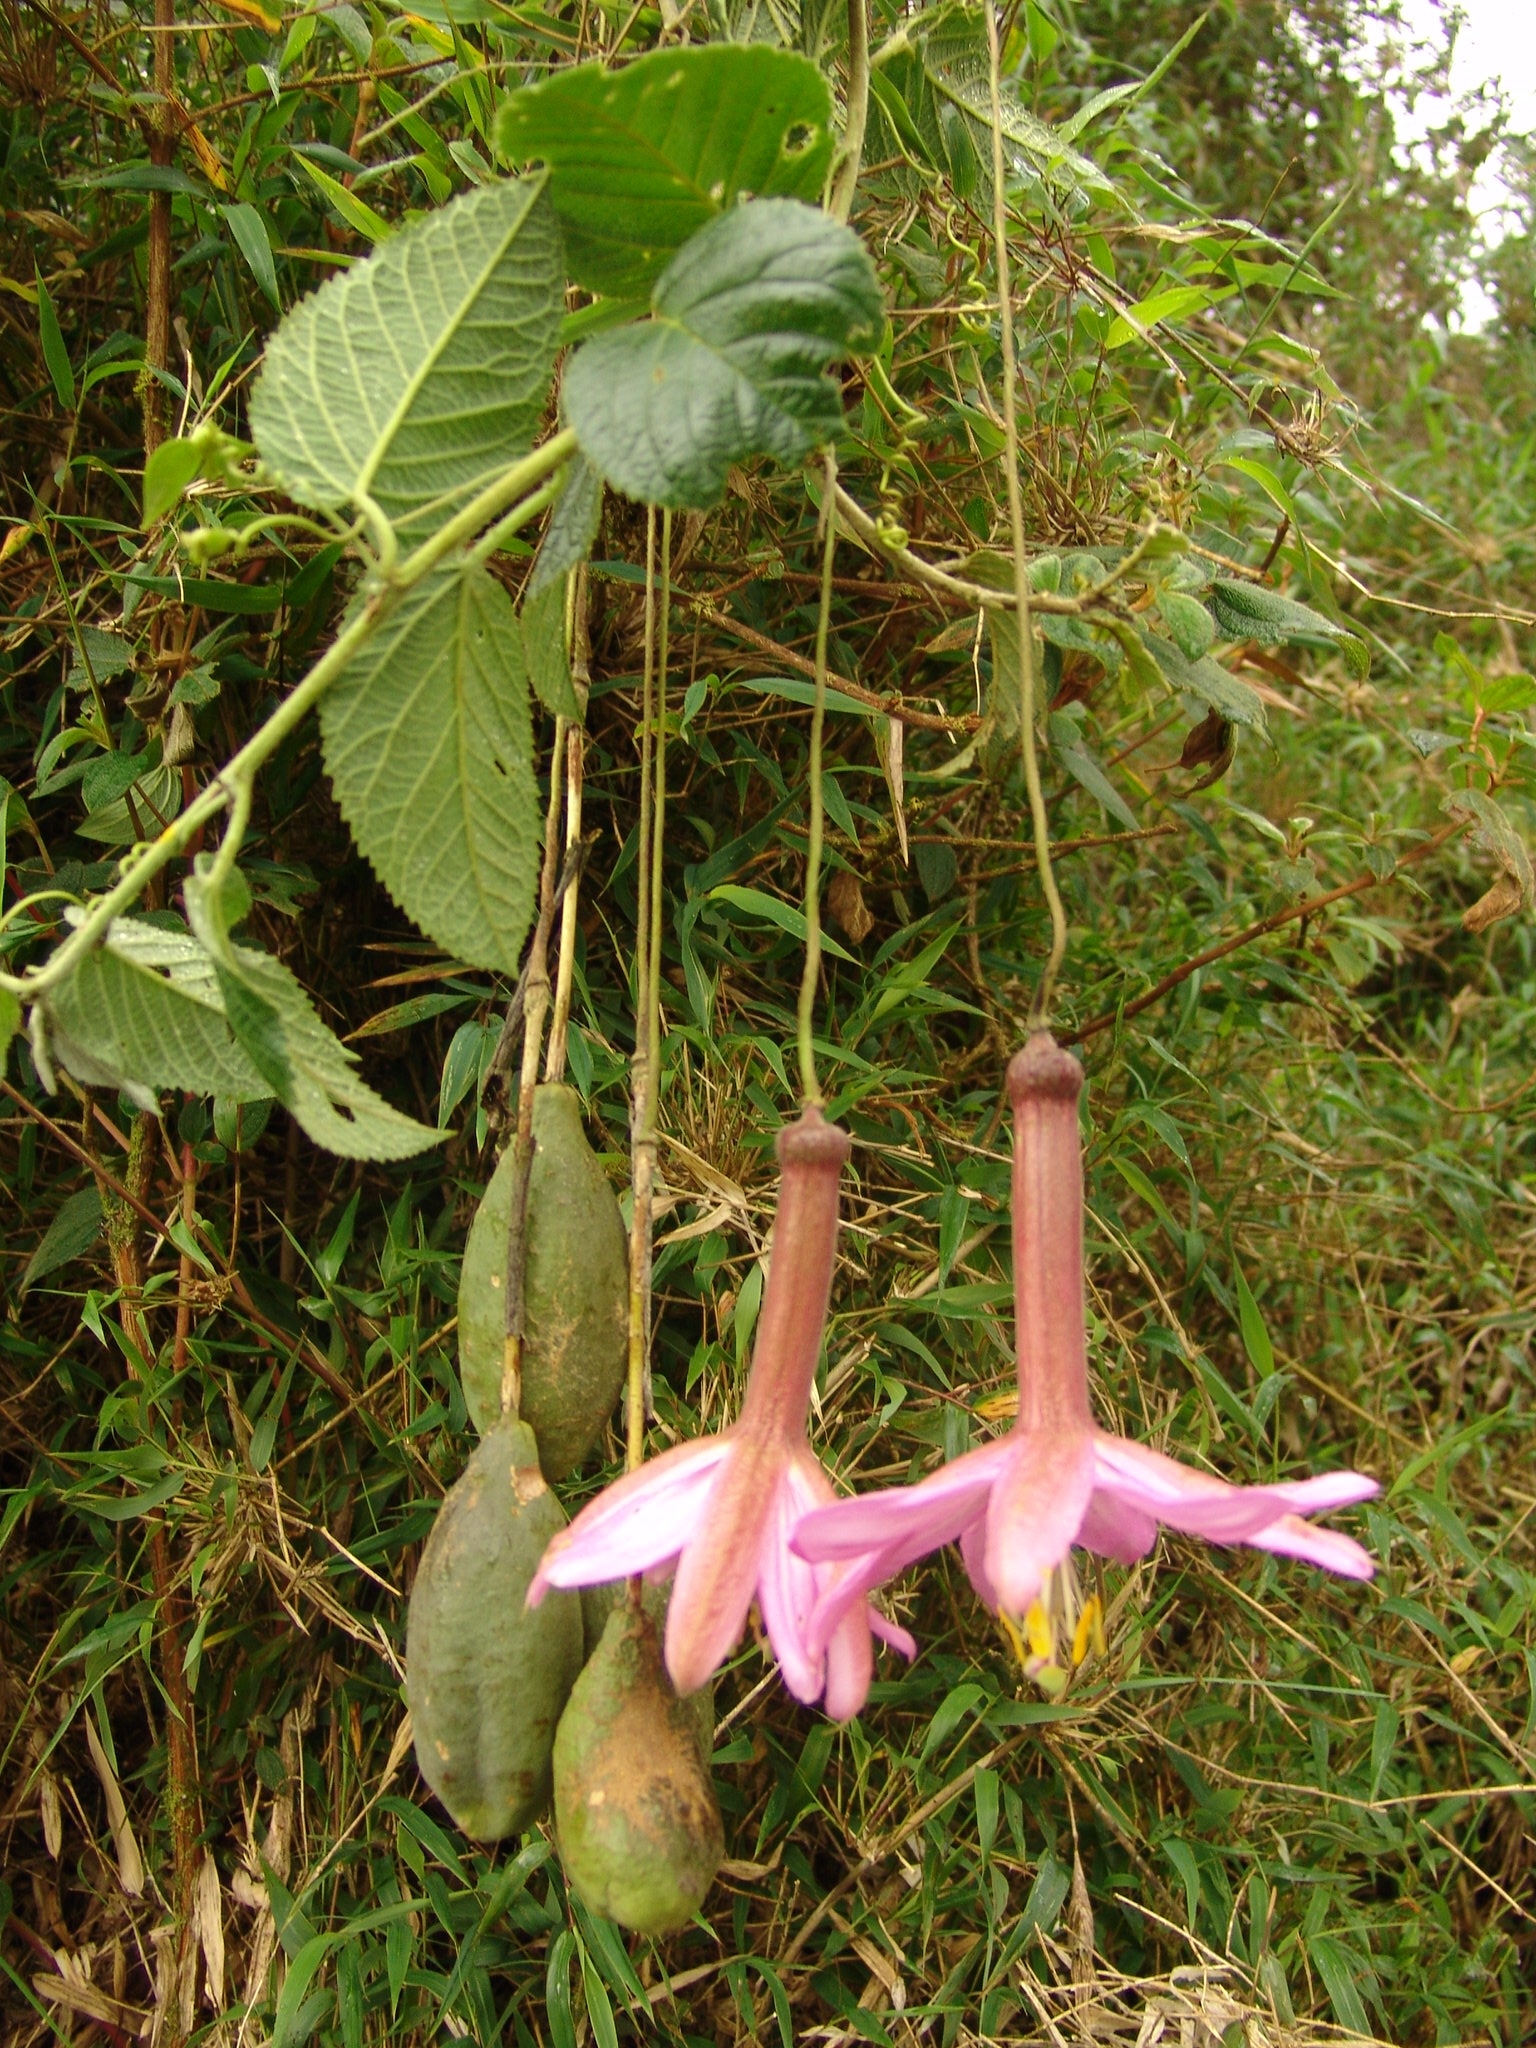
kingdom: Plantae
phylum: Tracheophyta
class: Magnoliopsida
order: Malpighiales
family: Passifloraceae
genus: Passiflora
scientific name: Passiflora tenerifensis
